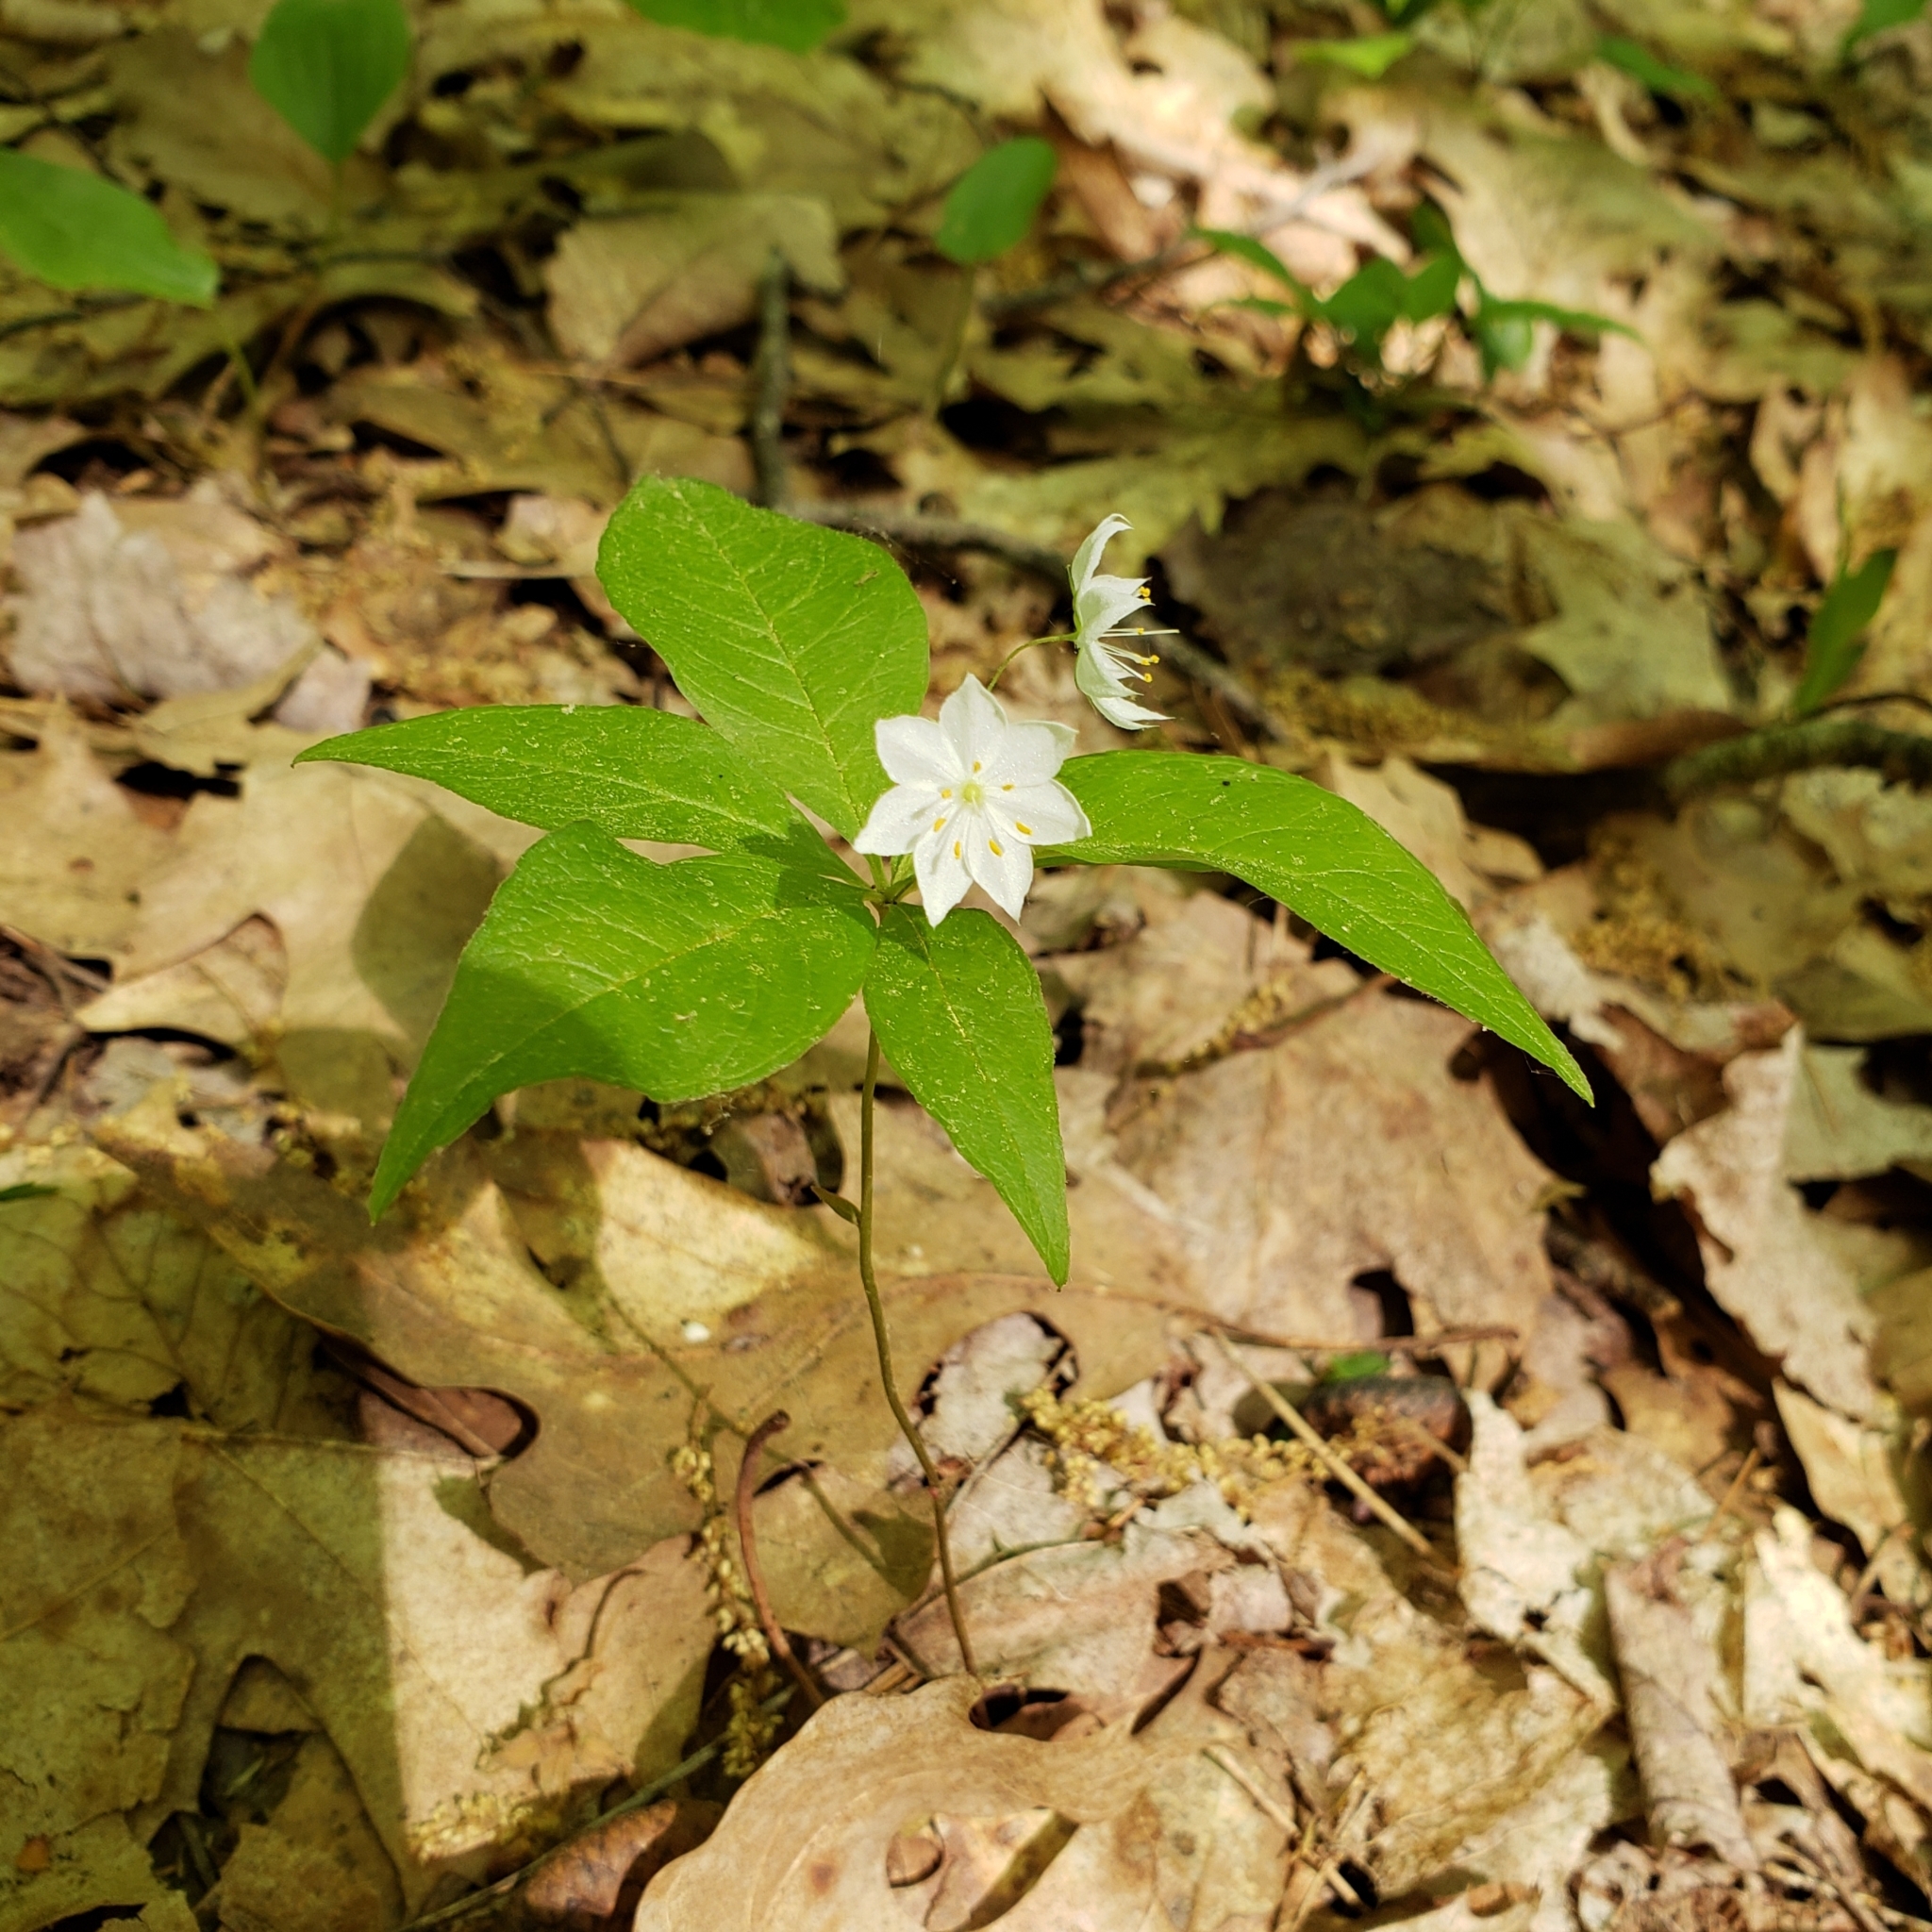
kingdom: Plantae
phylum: Tracheophyta
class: Magnoliopsida
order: Ericales
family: Primulaceae
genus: Lysimachia
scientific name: Lysimachia borealis
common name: American starflower
